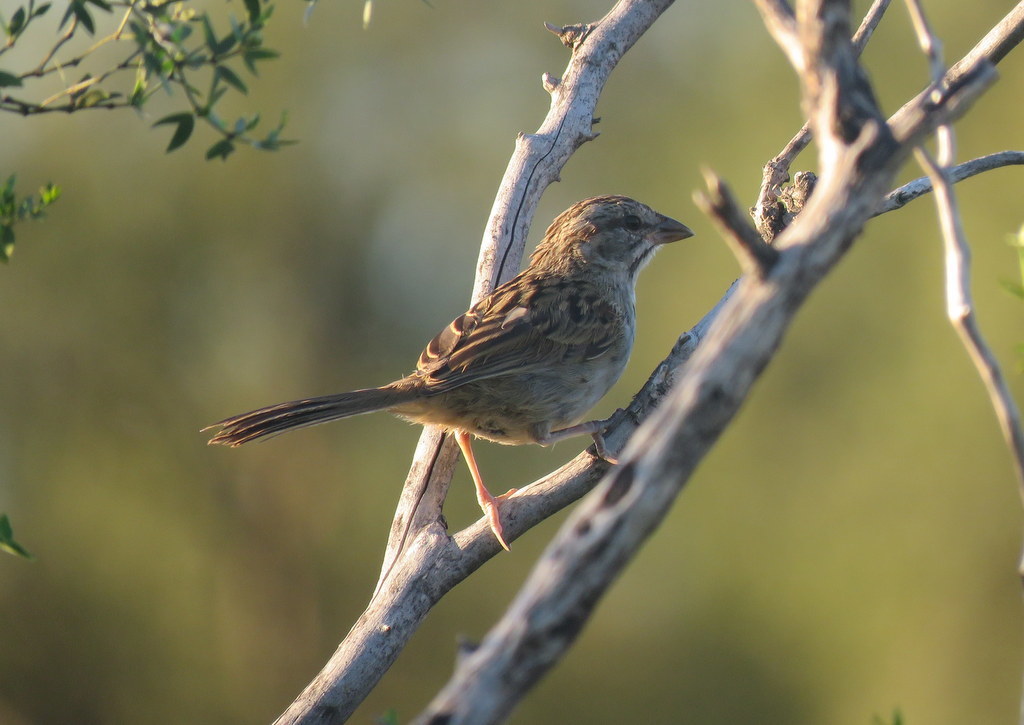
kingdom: Animalia
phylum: Chordata
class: Aves
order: Passeriformes
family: Passerellidae
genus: Rhynchospiza
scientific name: Rhynchospiza strigiceps
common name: Stripe-capped sparrow
